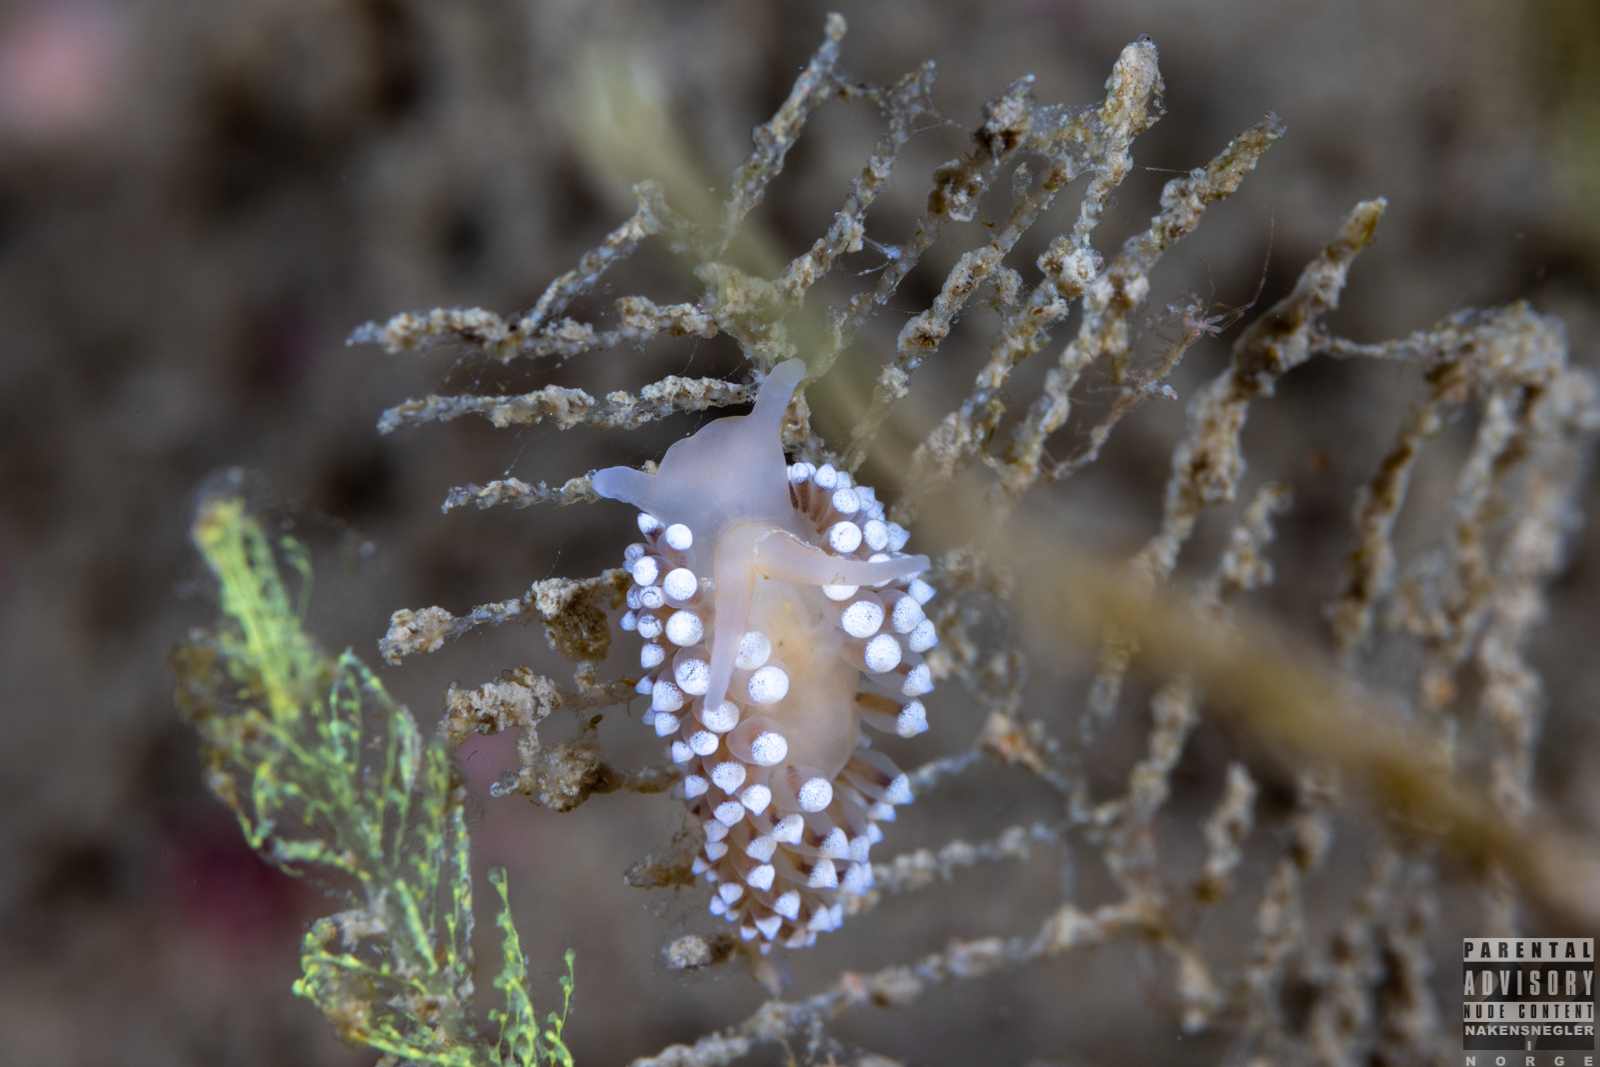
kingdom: Animalia
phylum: Mollusca
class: Gastropoda
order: Nudibranchia
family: Eubranchidae
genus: Eubranchus
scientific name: Eubranchus tricolor
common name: Painted balloon aeolis
